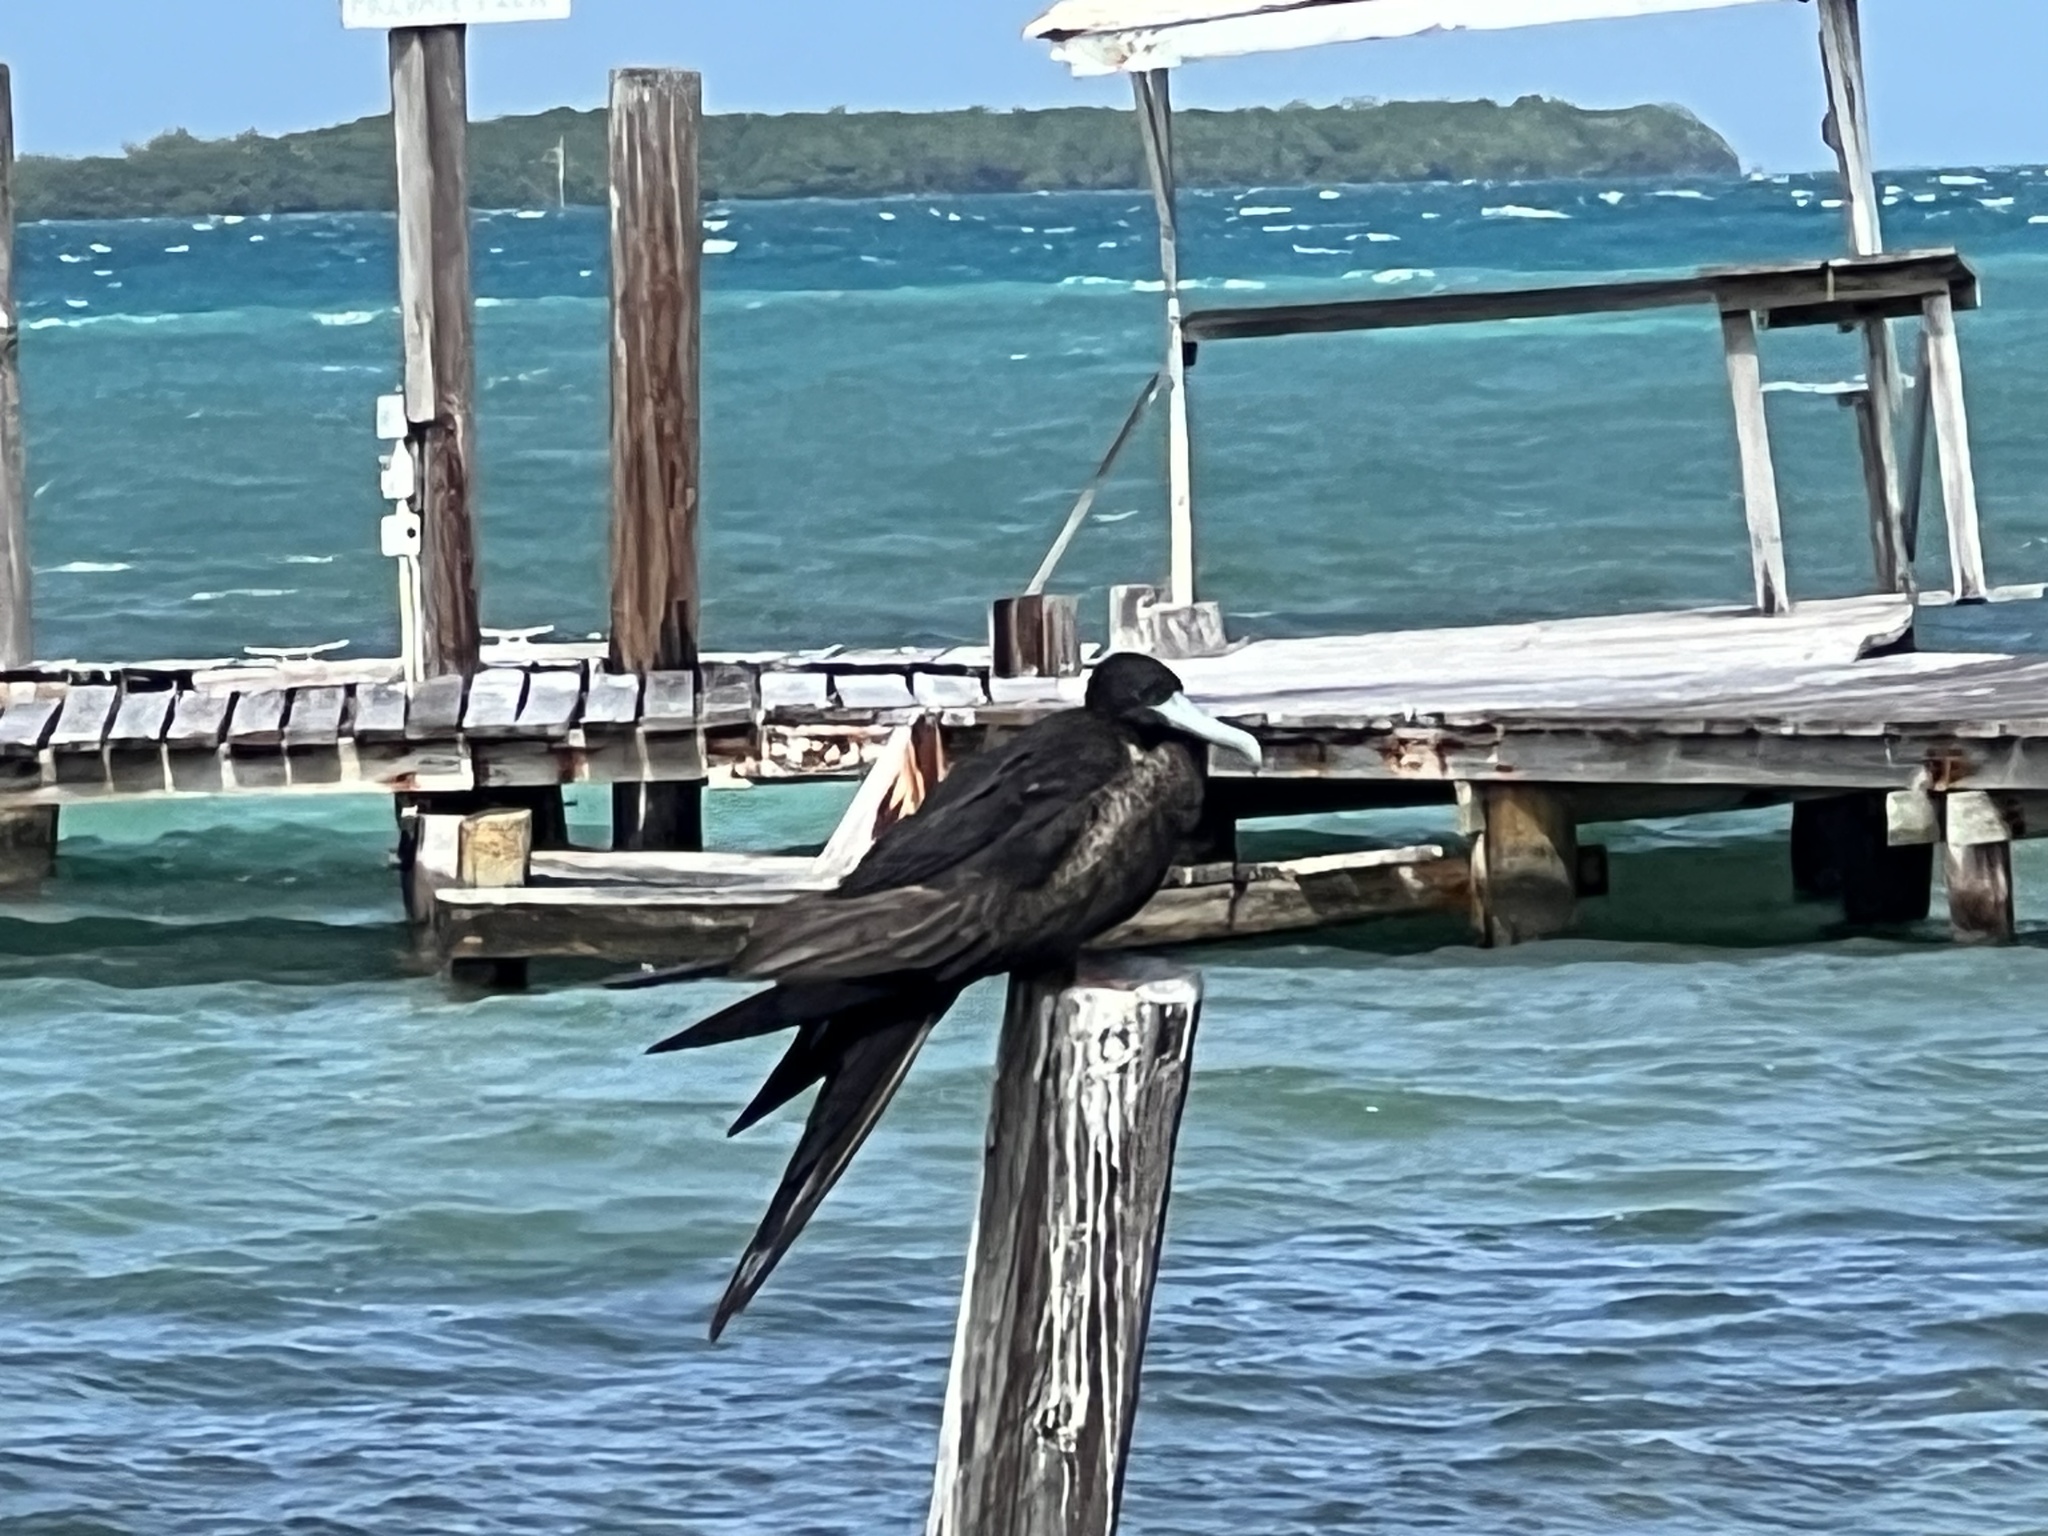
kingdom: Animalia
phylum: Chordata
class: Aves
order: Suliformes
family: Fregatidae
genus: Fregata
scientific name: Fregata magnificens
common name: Magnificent frigatebird
